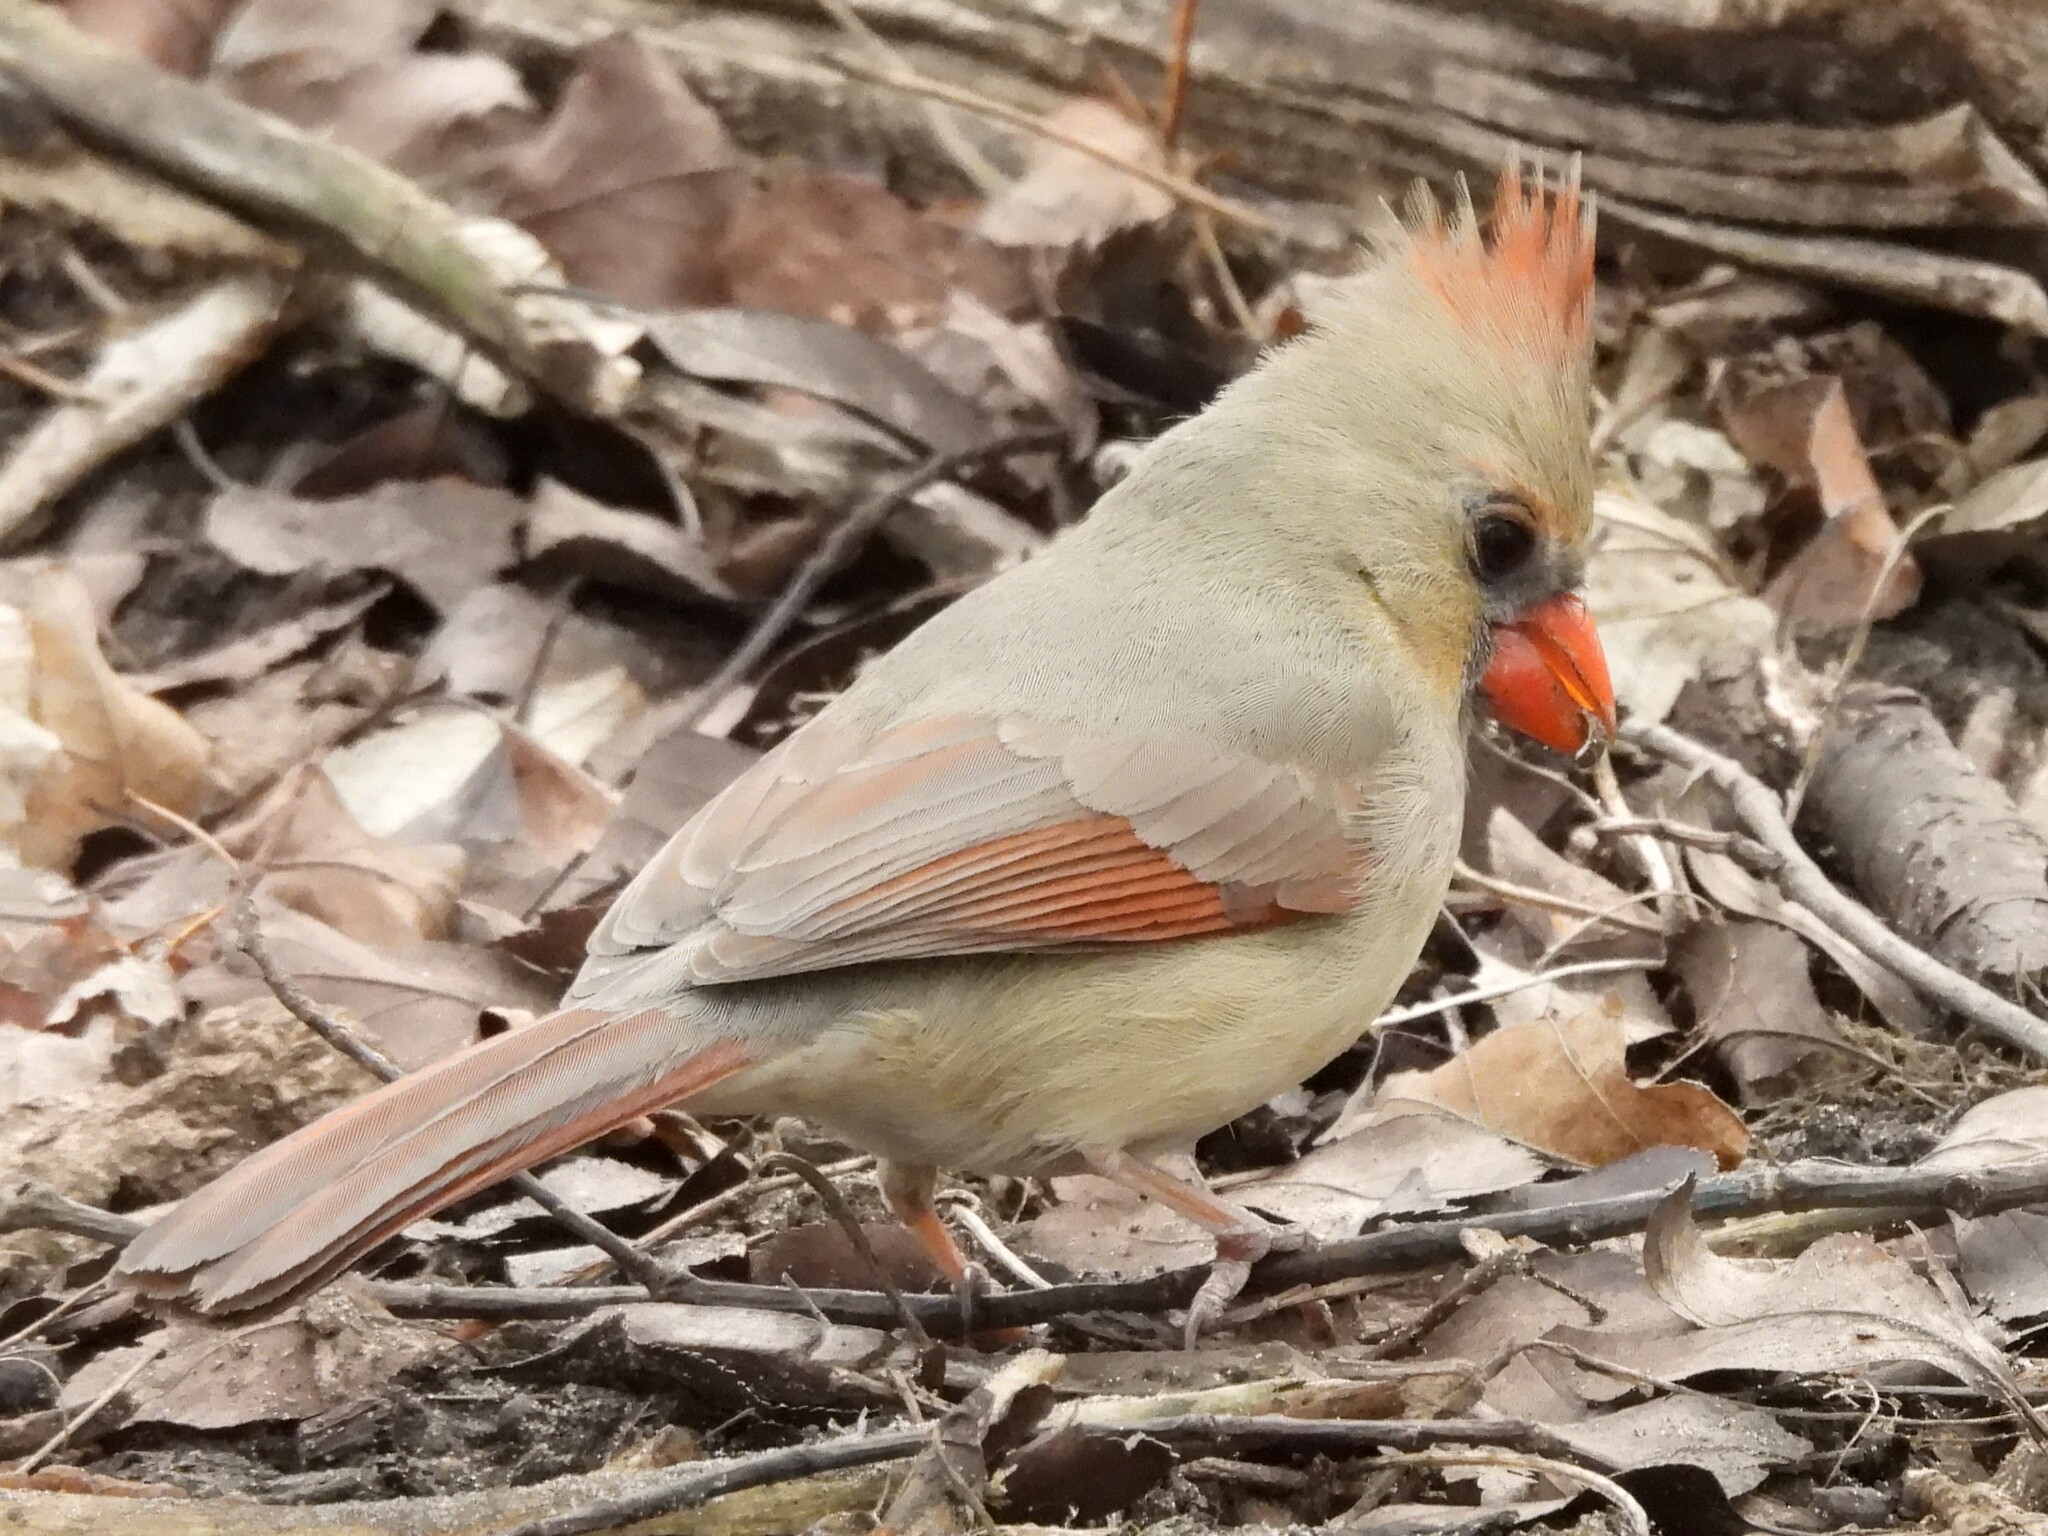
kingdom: Animalia
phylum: Chordata
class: Aves
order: Passeriformes
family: Cardinalidae
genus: Cardinalis
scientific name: Cardinalis cardinalis
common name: Northern cardinal
